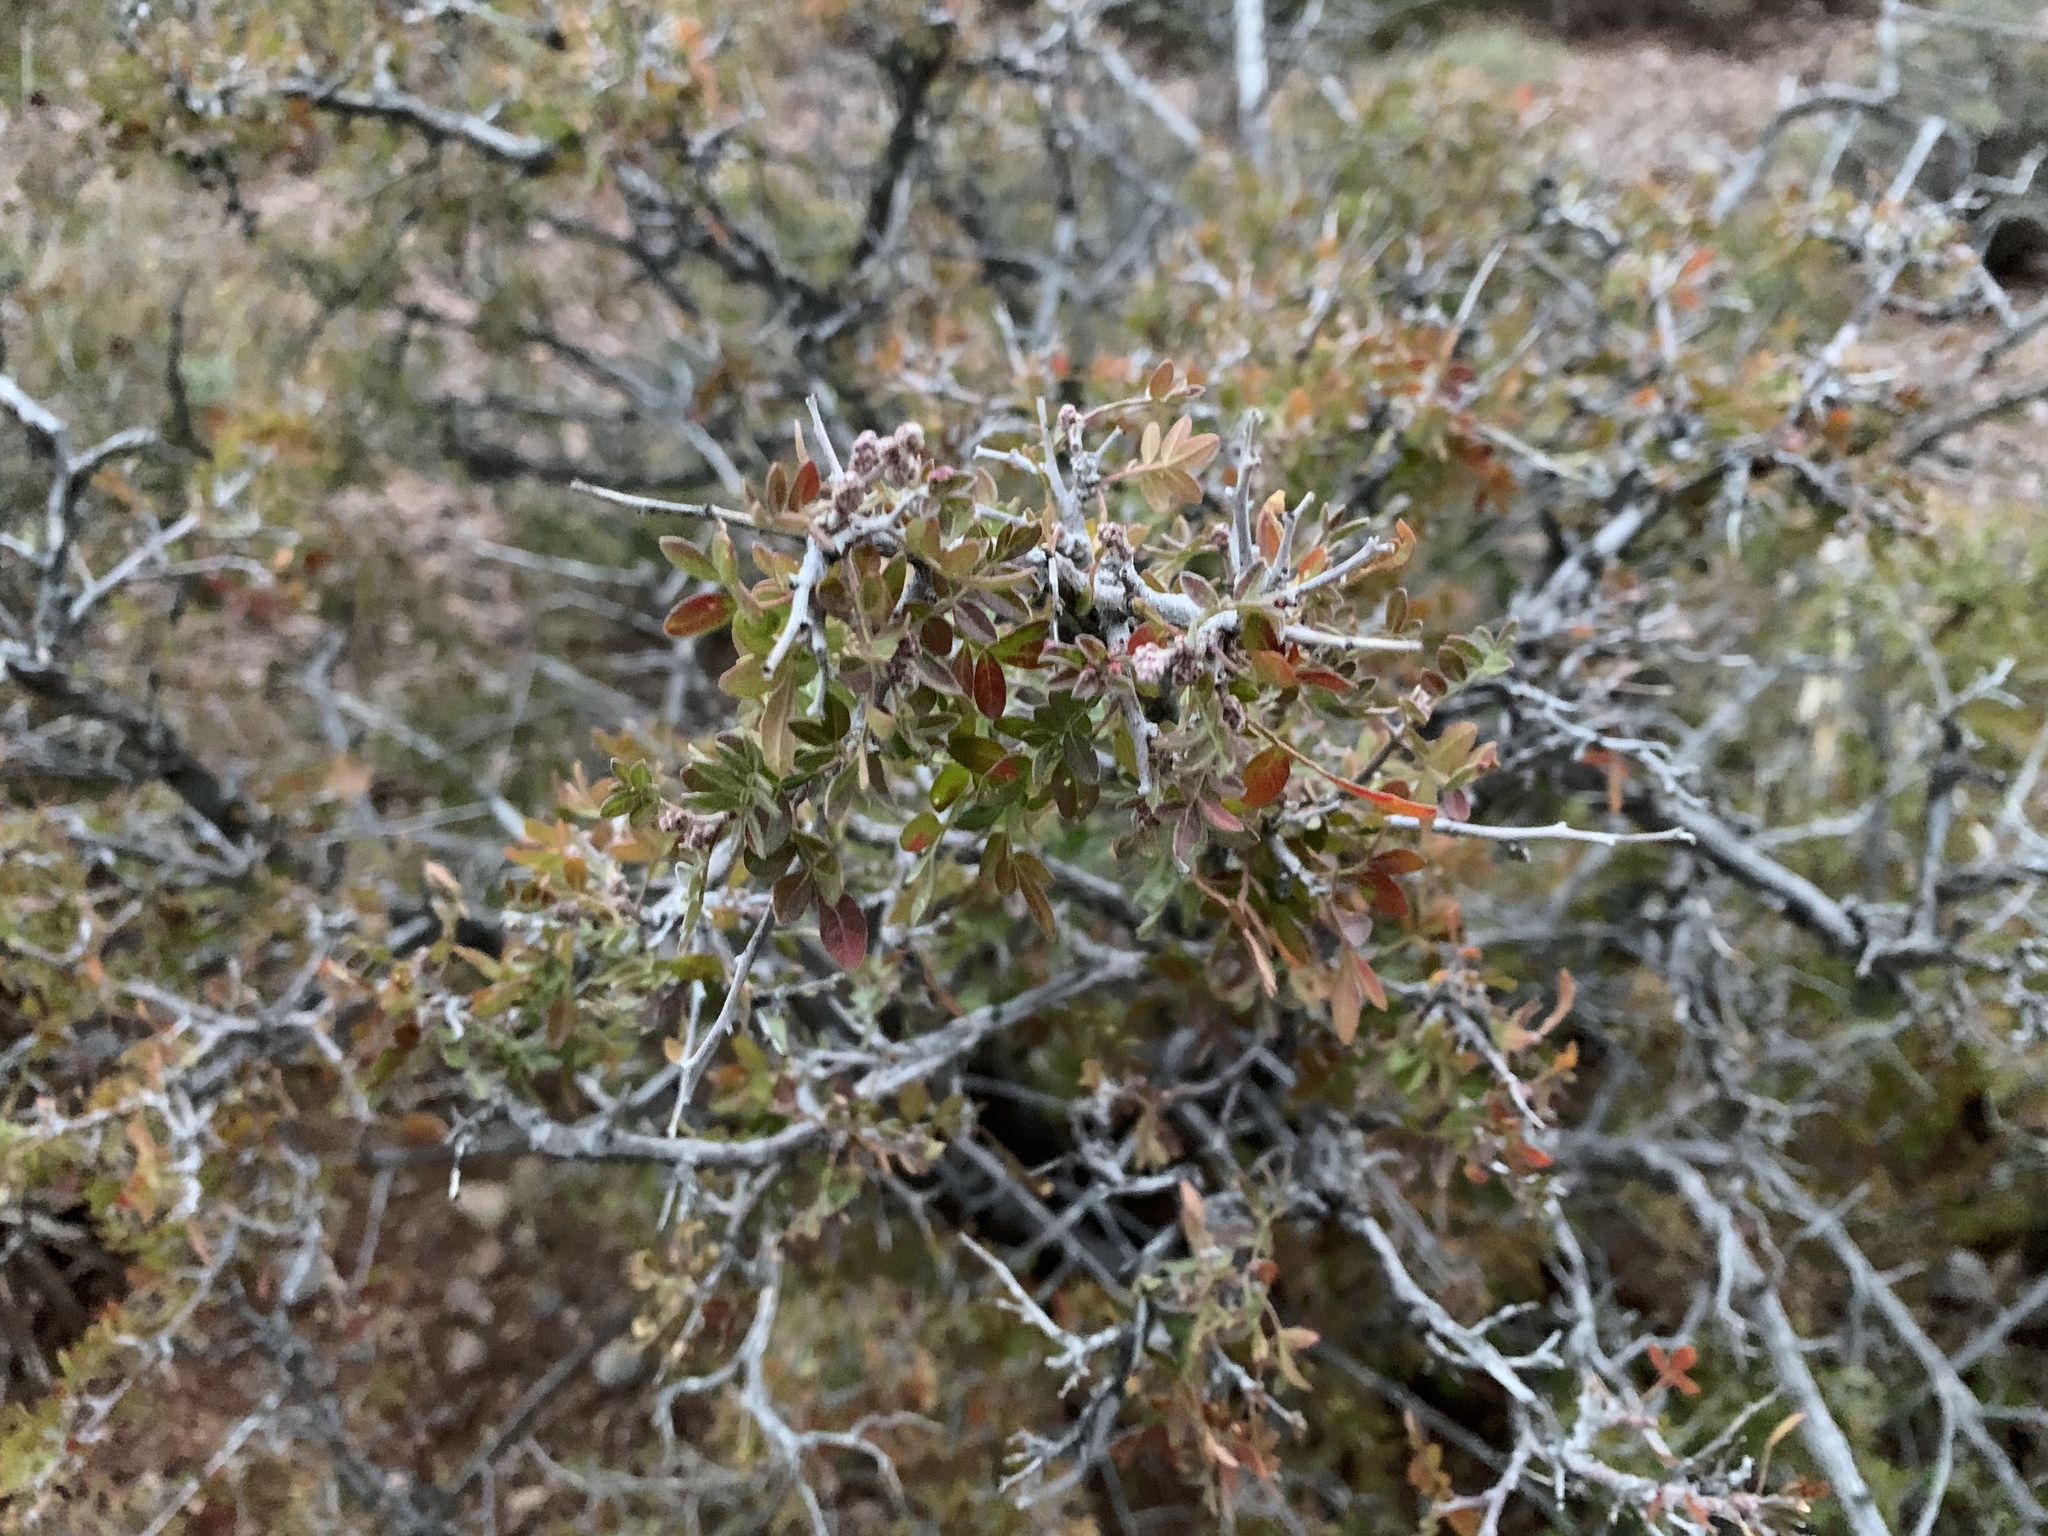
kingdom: Plantae
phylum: Tracheophyta
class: Magnoliopsida
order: Sapindales
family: Anacardiaceae
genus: Rhus
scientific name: Rhus microphylla
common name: Desert sumac
